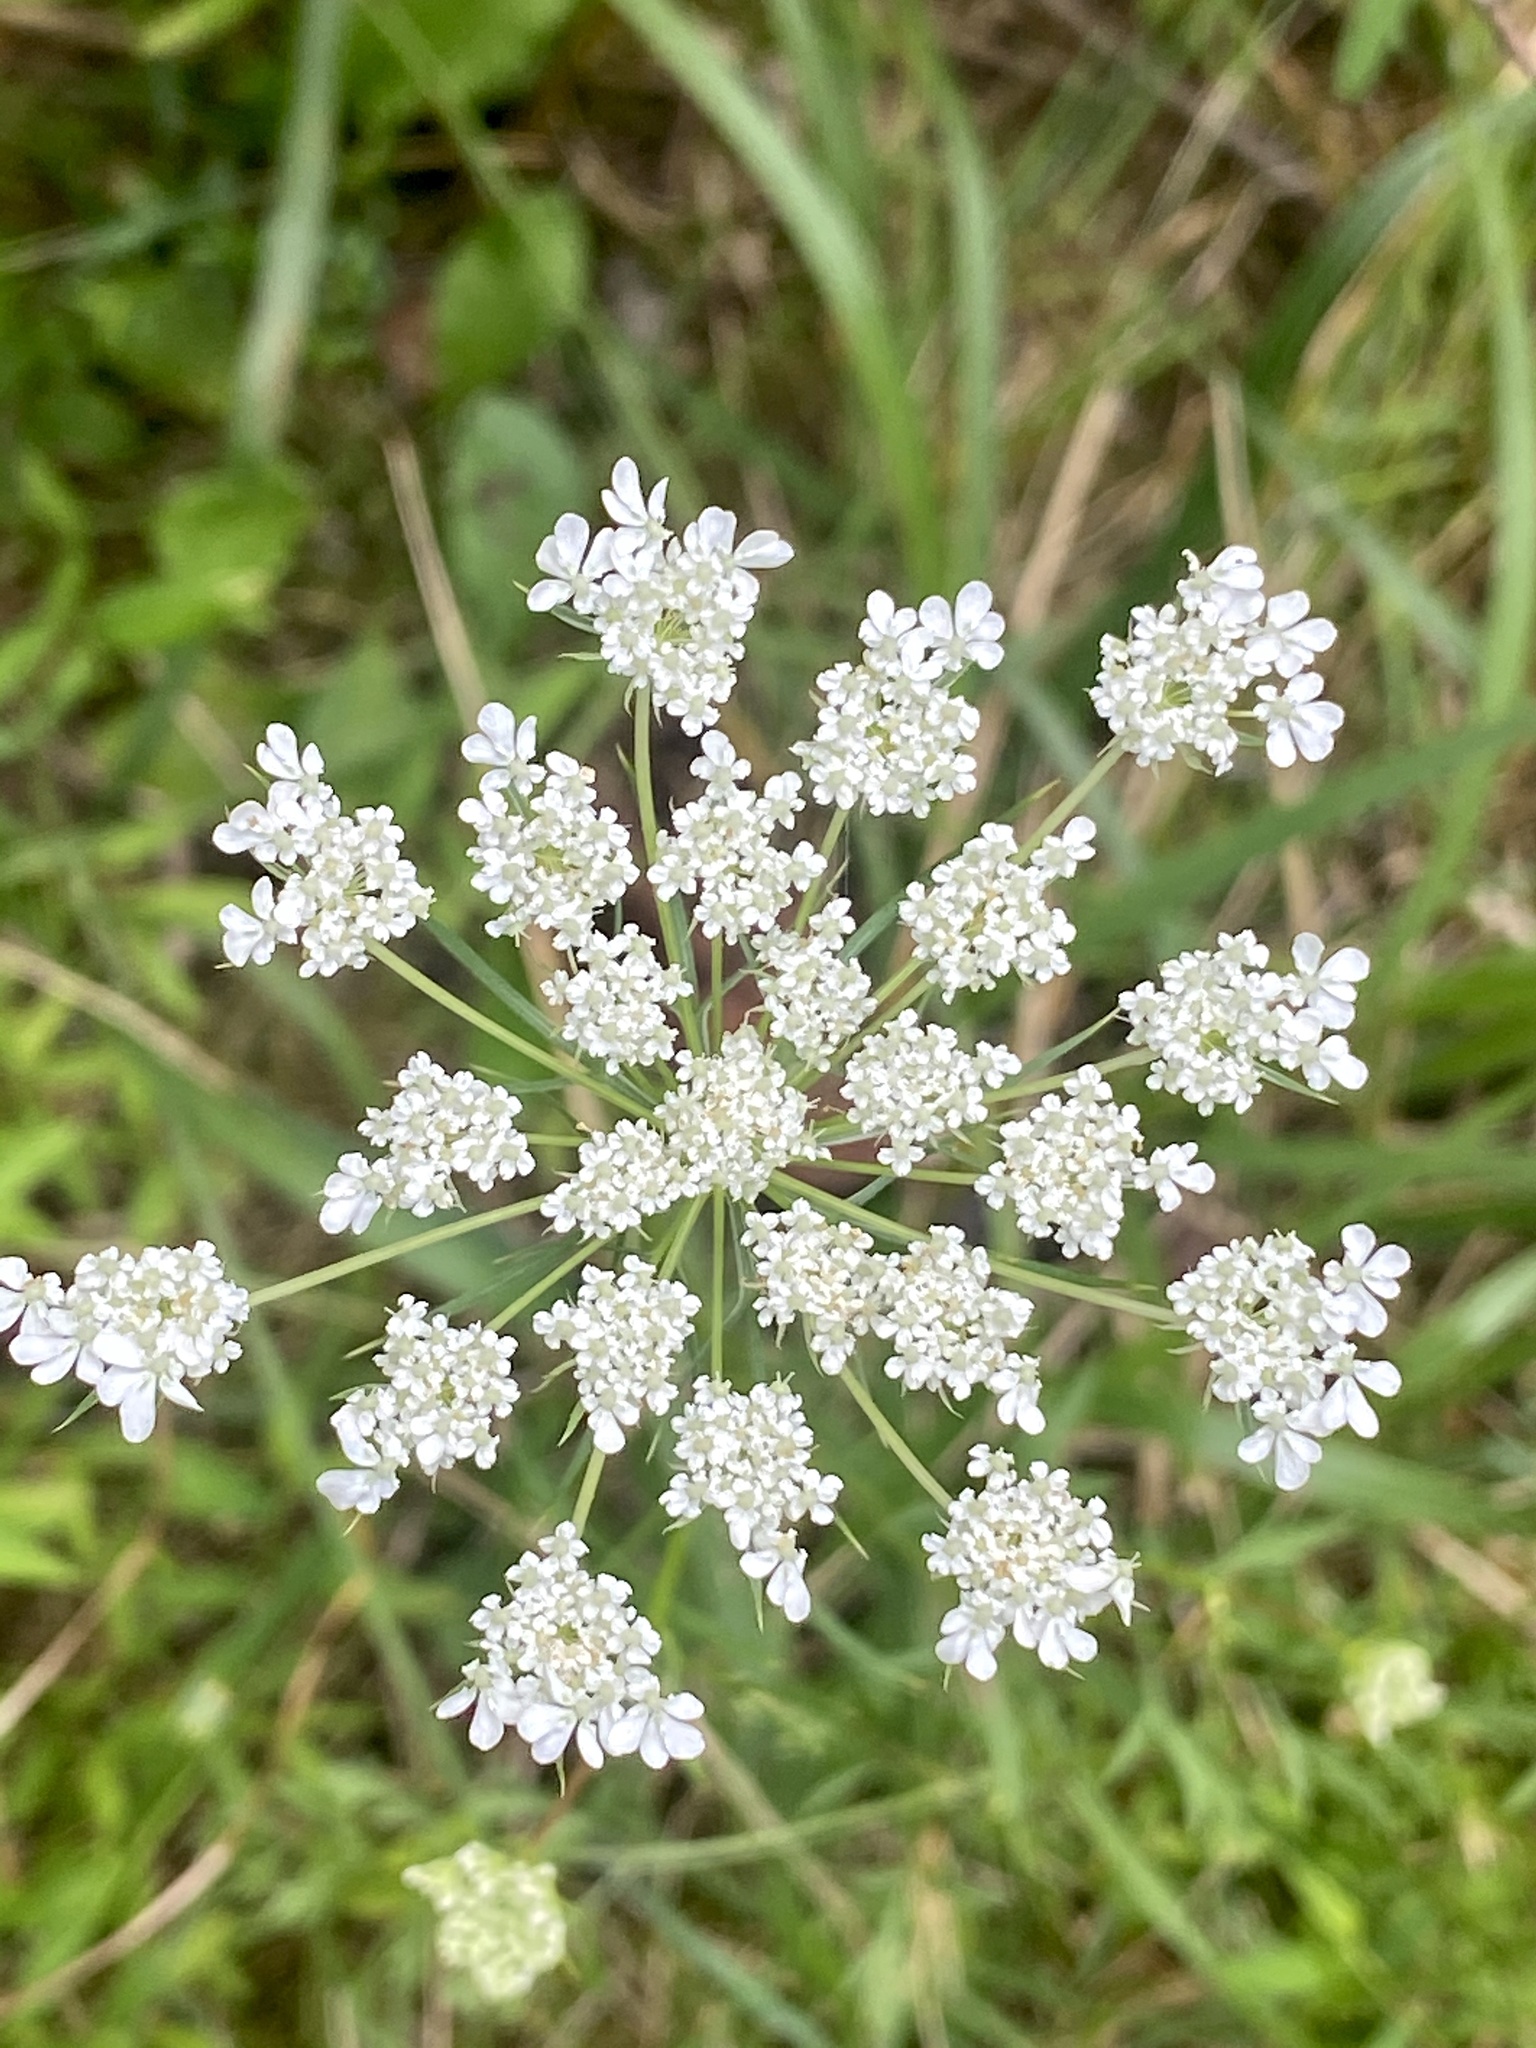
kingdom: Plantae
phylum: Tracheophyta
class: Magnoliopsida
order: Apiales
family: Apiaceae
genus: Daucus
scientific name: Daucus carota
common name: Wild carrot
